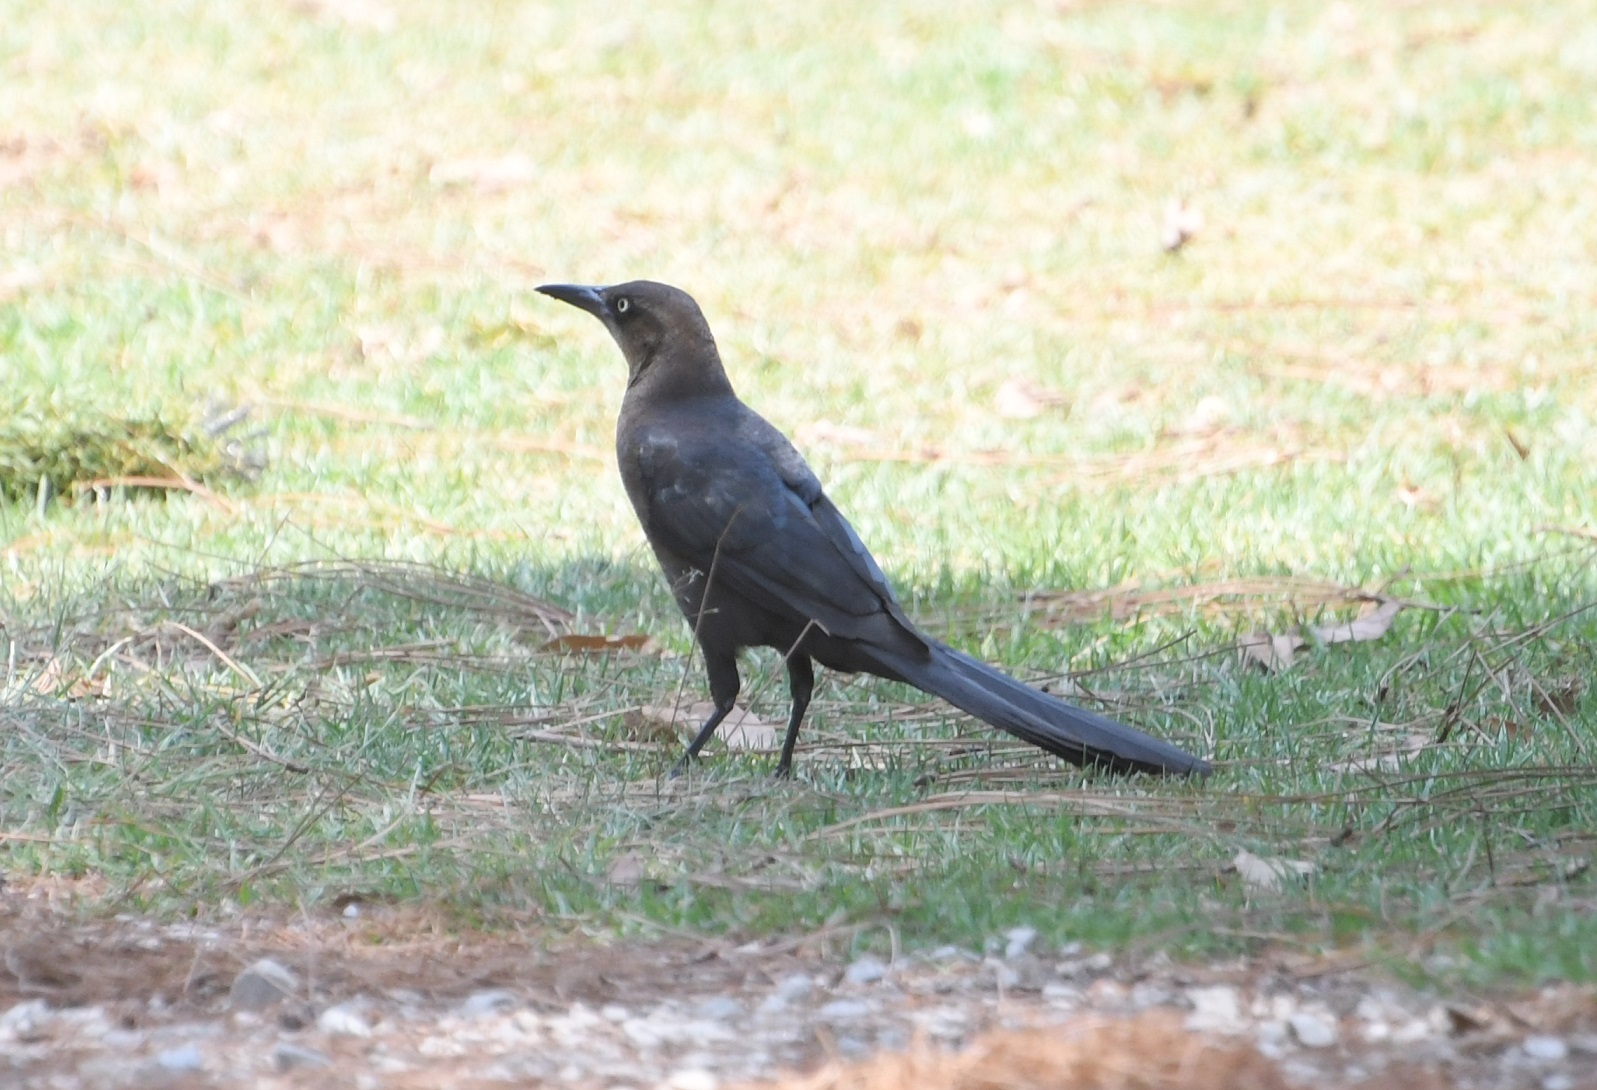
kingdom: Animalia
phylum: Chordata
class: Aves
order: Passeriformes
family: Icteridae
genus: Quiscalus
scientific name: Quiscalus mexicanus
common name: Great-tailed grackle
